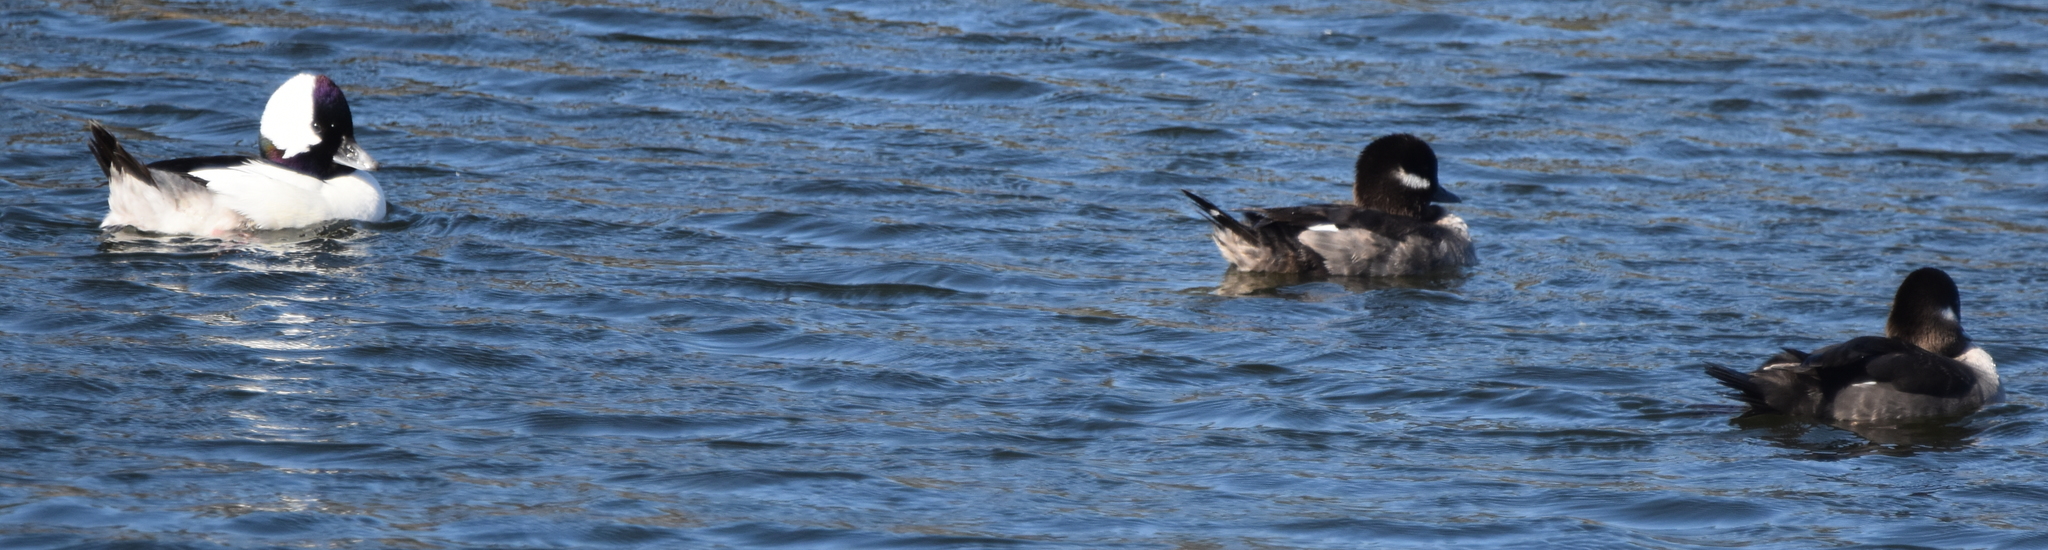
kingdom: Animalia
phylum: Chordata
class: Aves
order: Anseriformes
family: Anatidae
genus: Bucephala
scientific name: Bucephala albeola
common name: Bufflehead
